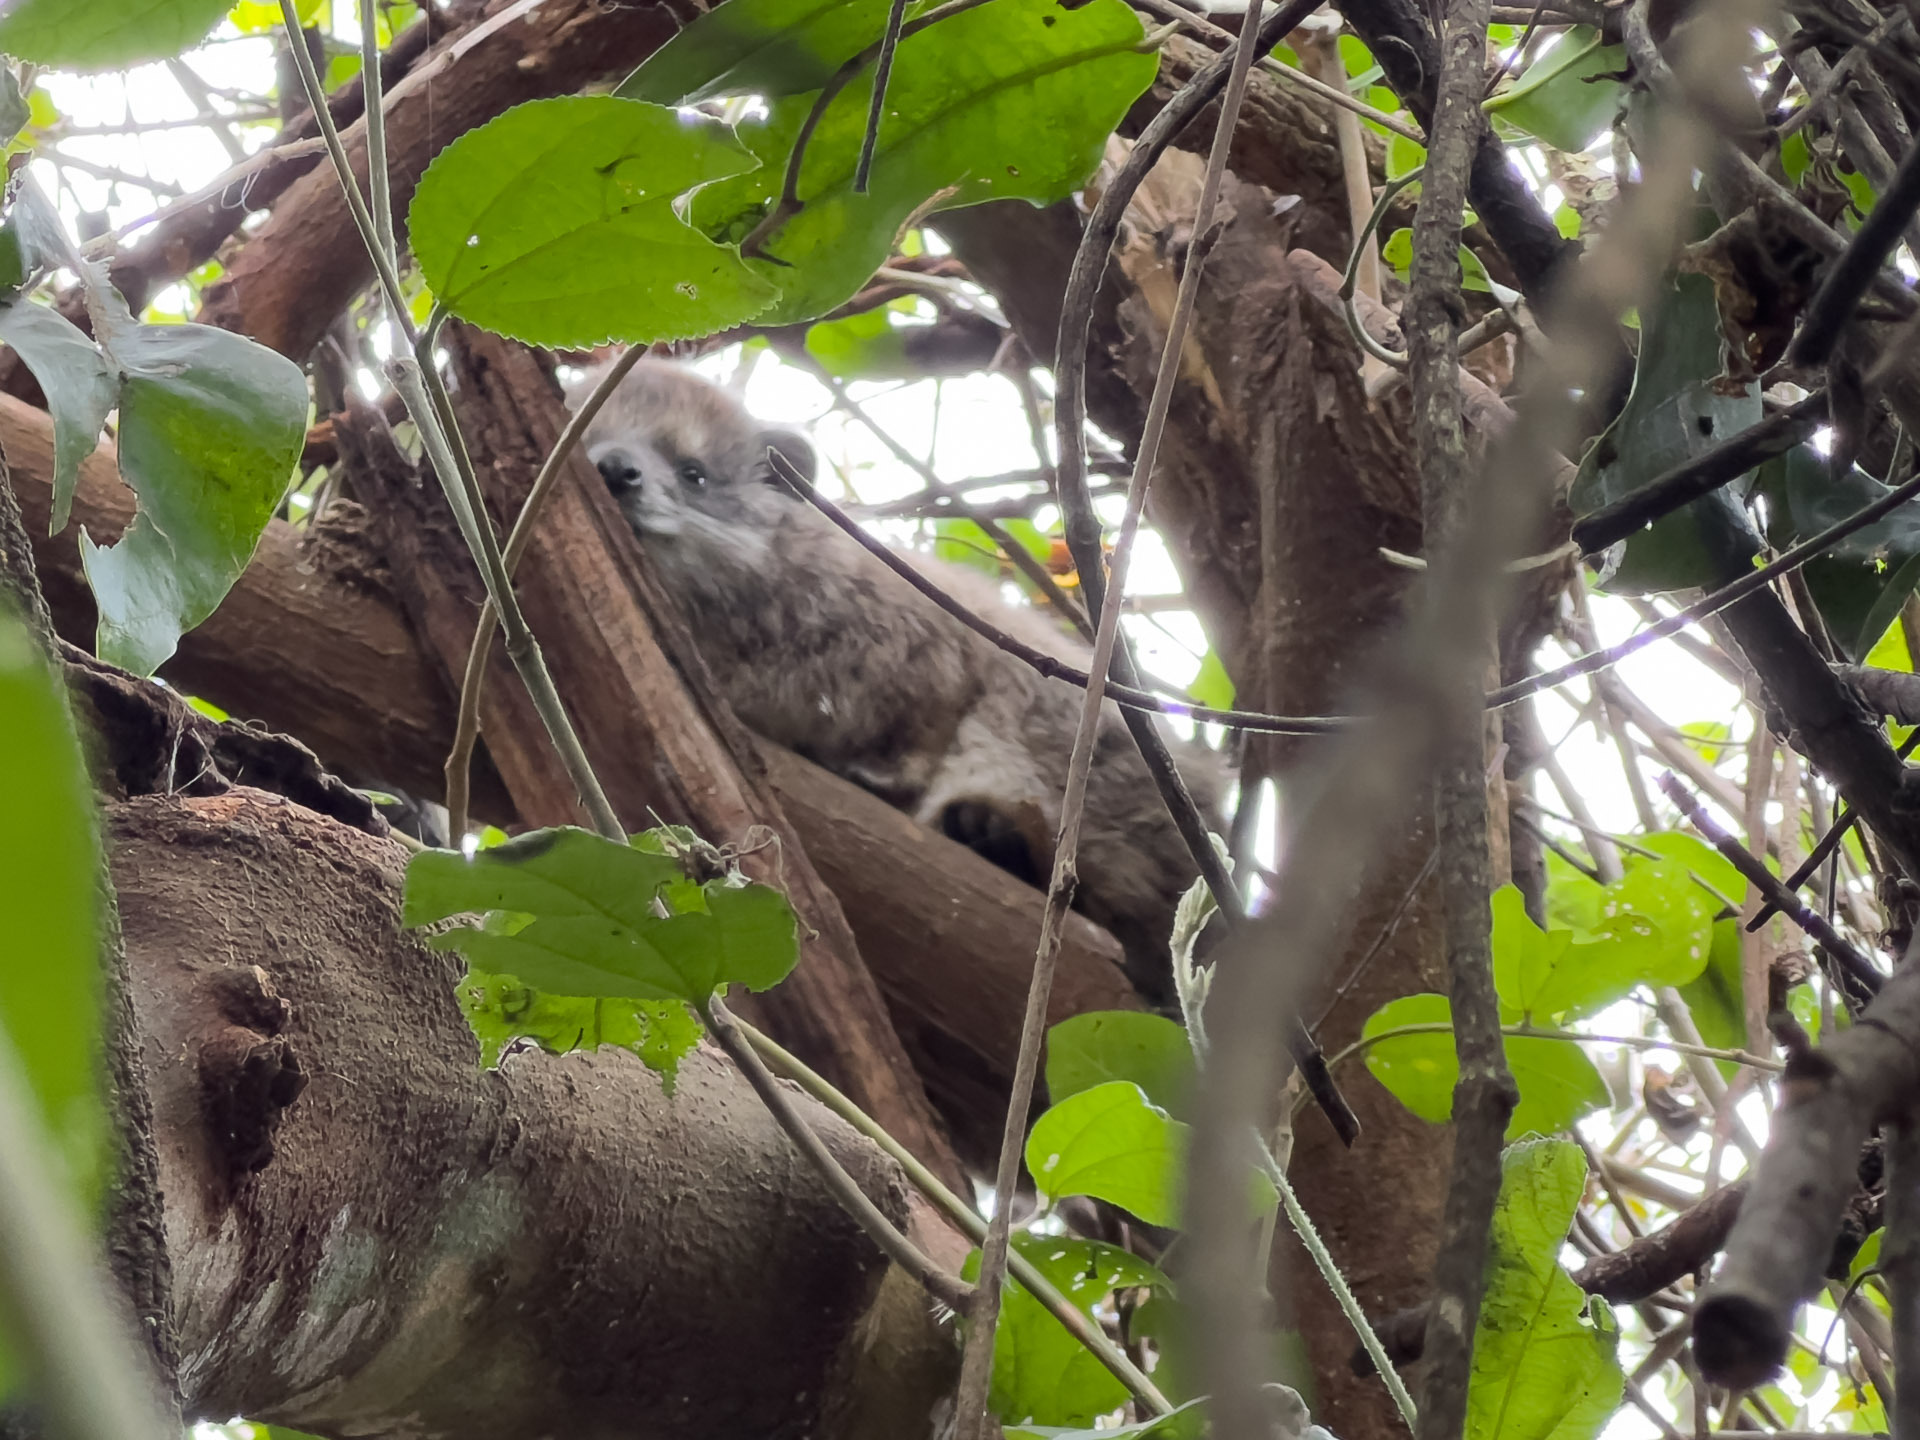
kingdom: Animalia
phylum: Chordata
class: Mammalia
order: Hyracoidea
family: Procaviidae
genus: Dendrohyrax
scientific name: Dendrohyrax arboreus
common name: Southern tree hyrax
